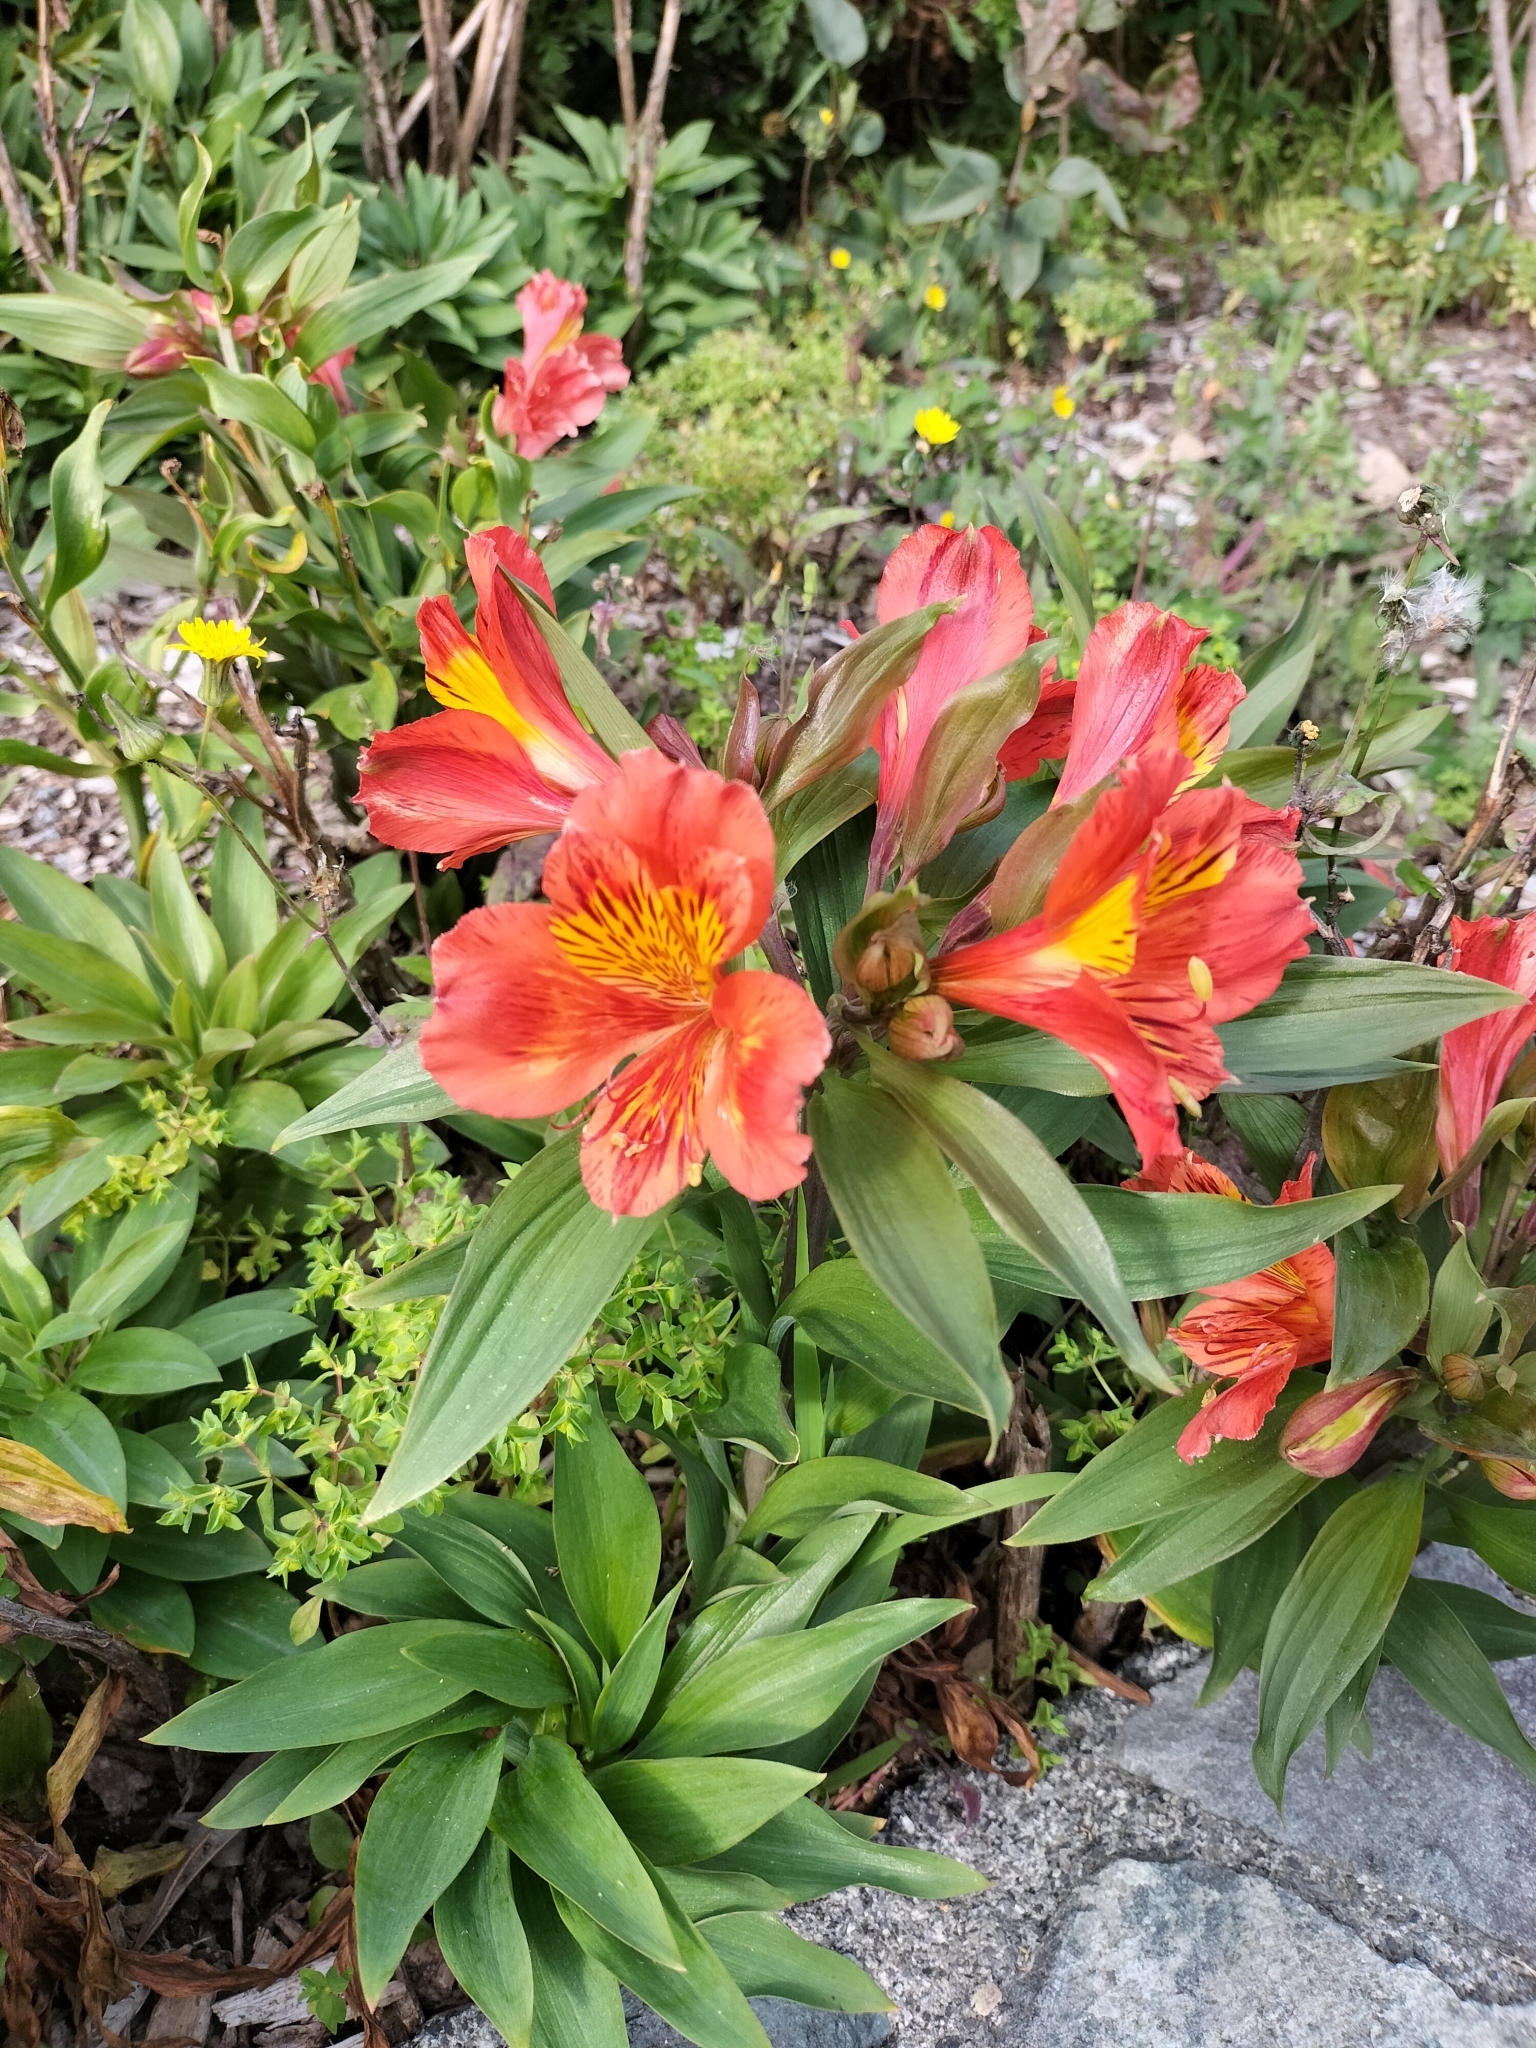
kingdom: Plantae
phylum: Tracheophyta
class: Liliopsida
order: Liliales
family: Alstroemeriaceae
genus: Alstroemeria
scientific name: Alstroemeria aurea
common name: Peruvian lily
